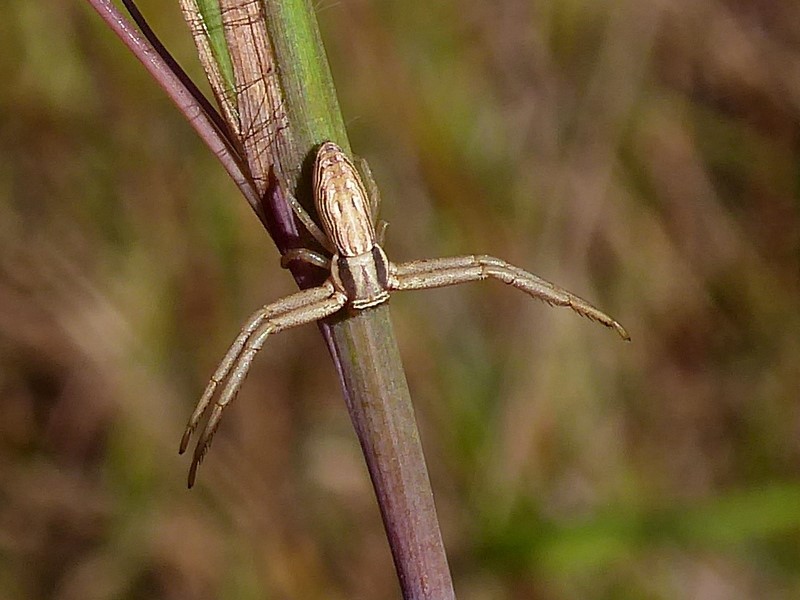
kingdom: Animalia
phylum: Arthropoda
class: Arachnida
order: Araneae
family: Thomisidae
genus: Runcinia
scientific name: Runcinia acuminata
